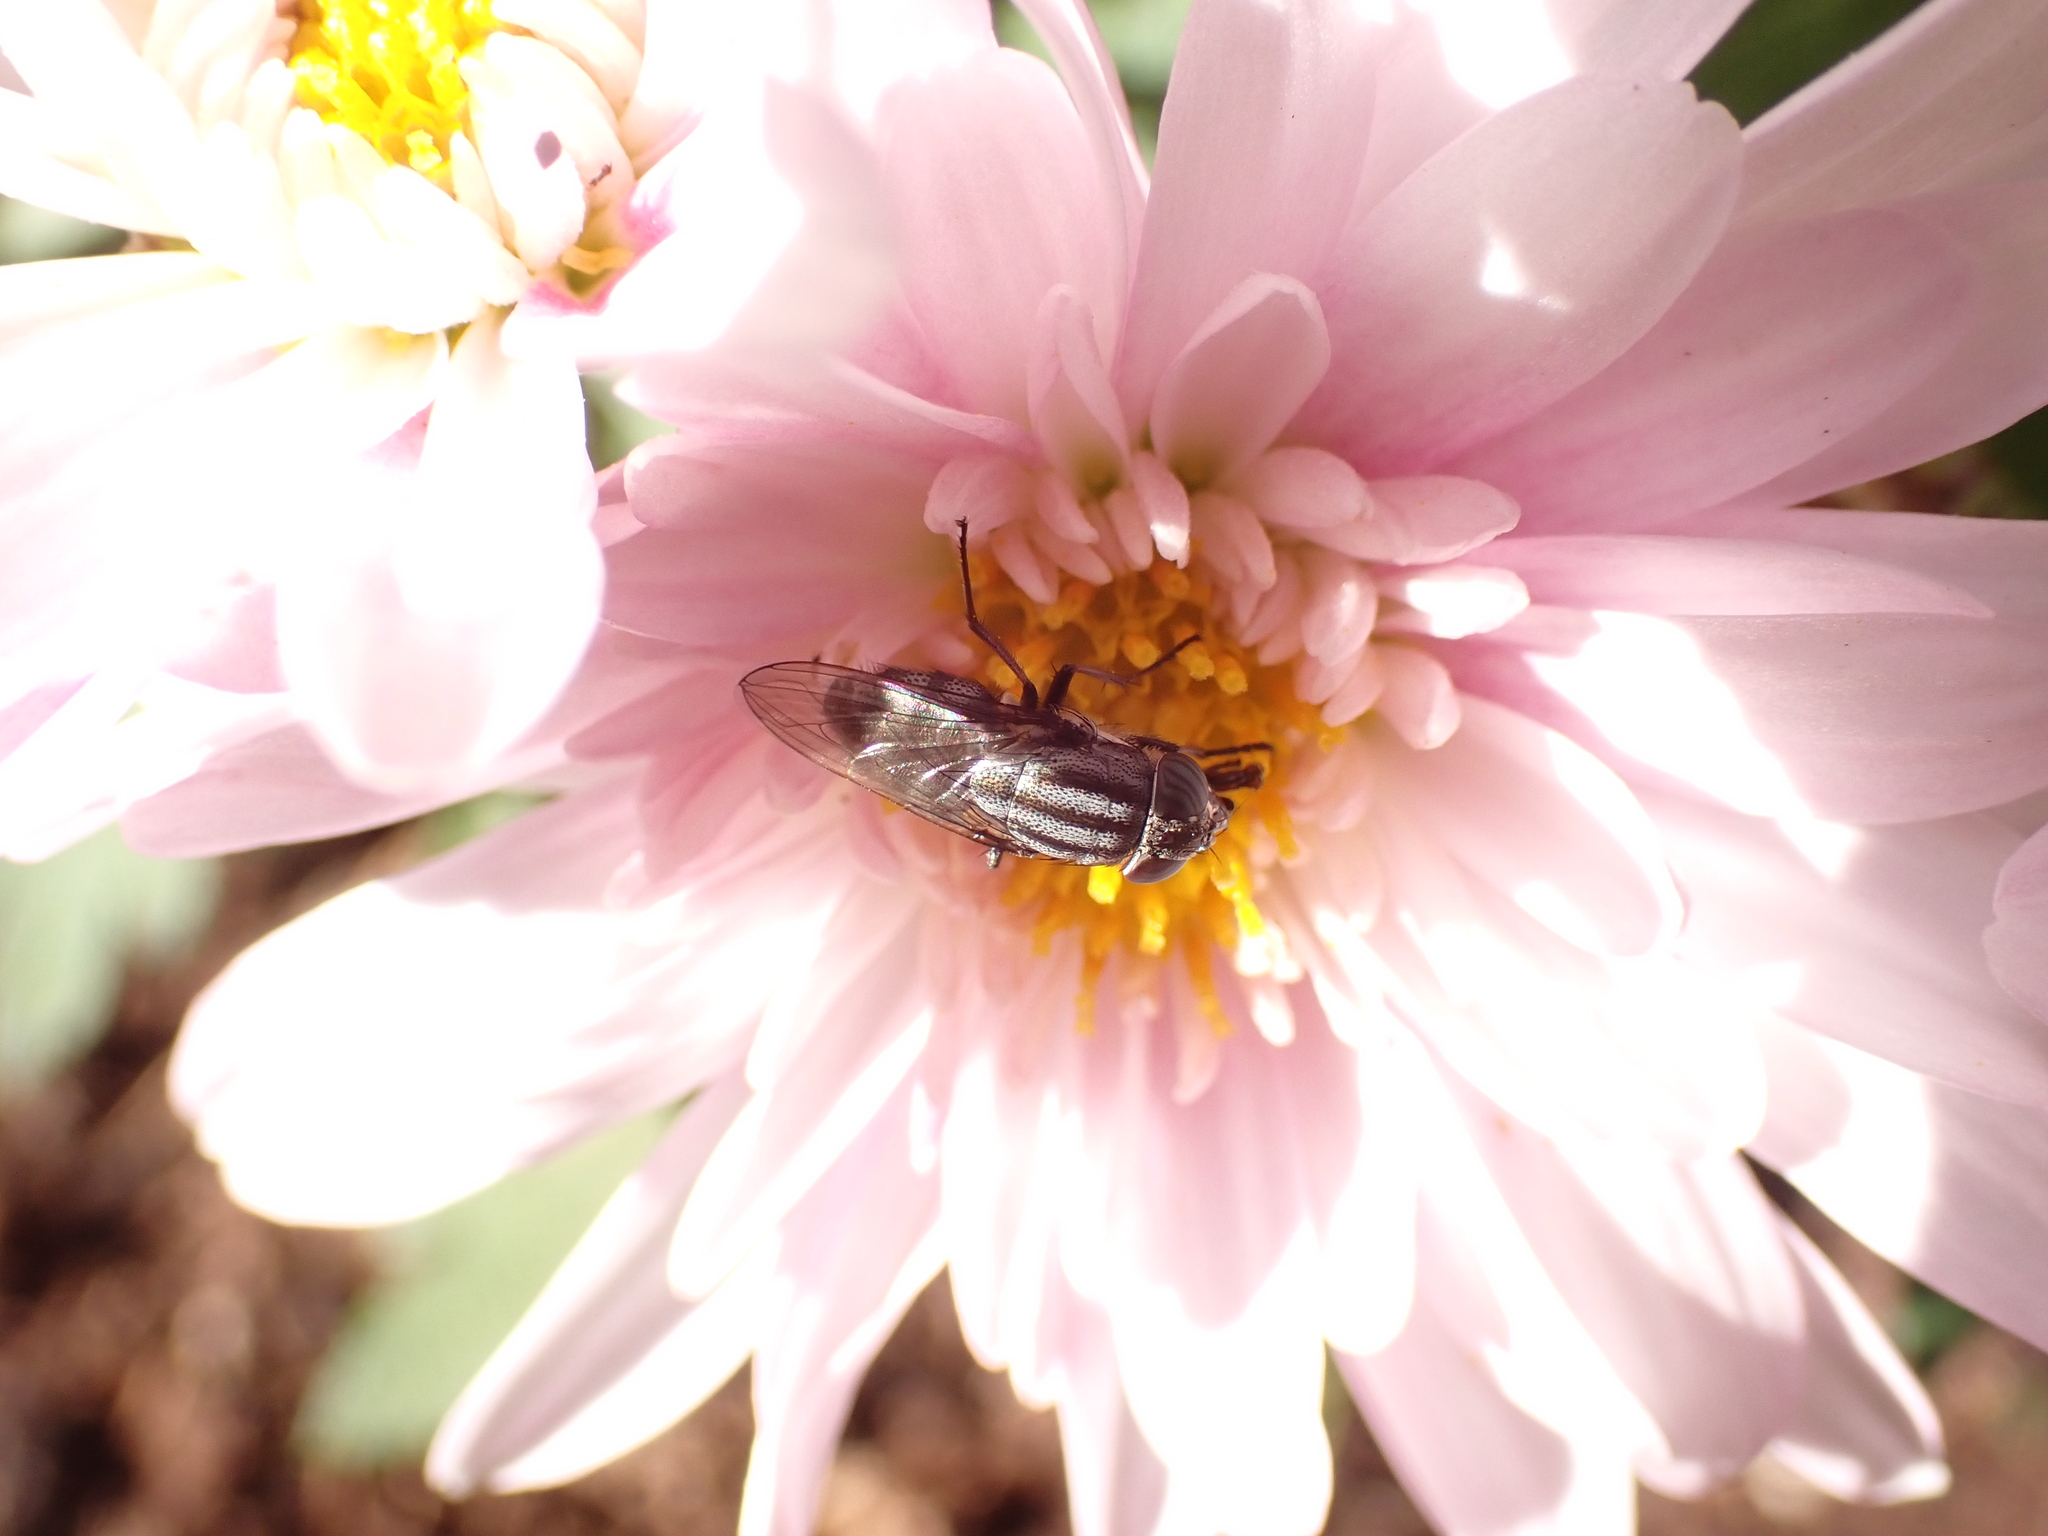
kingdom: Animalia
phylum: Arthropoda
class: Insecta
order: Diptera
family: Calliphoridae
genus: Stomorhina
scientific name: Stomorhina lunata
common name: Locust blowfly
